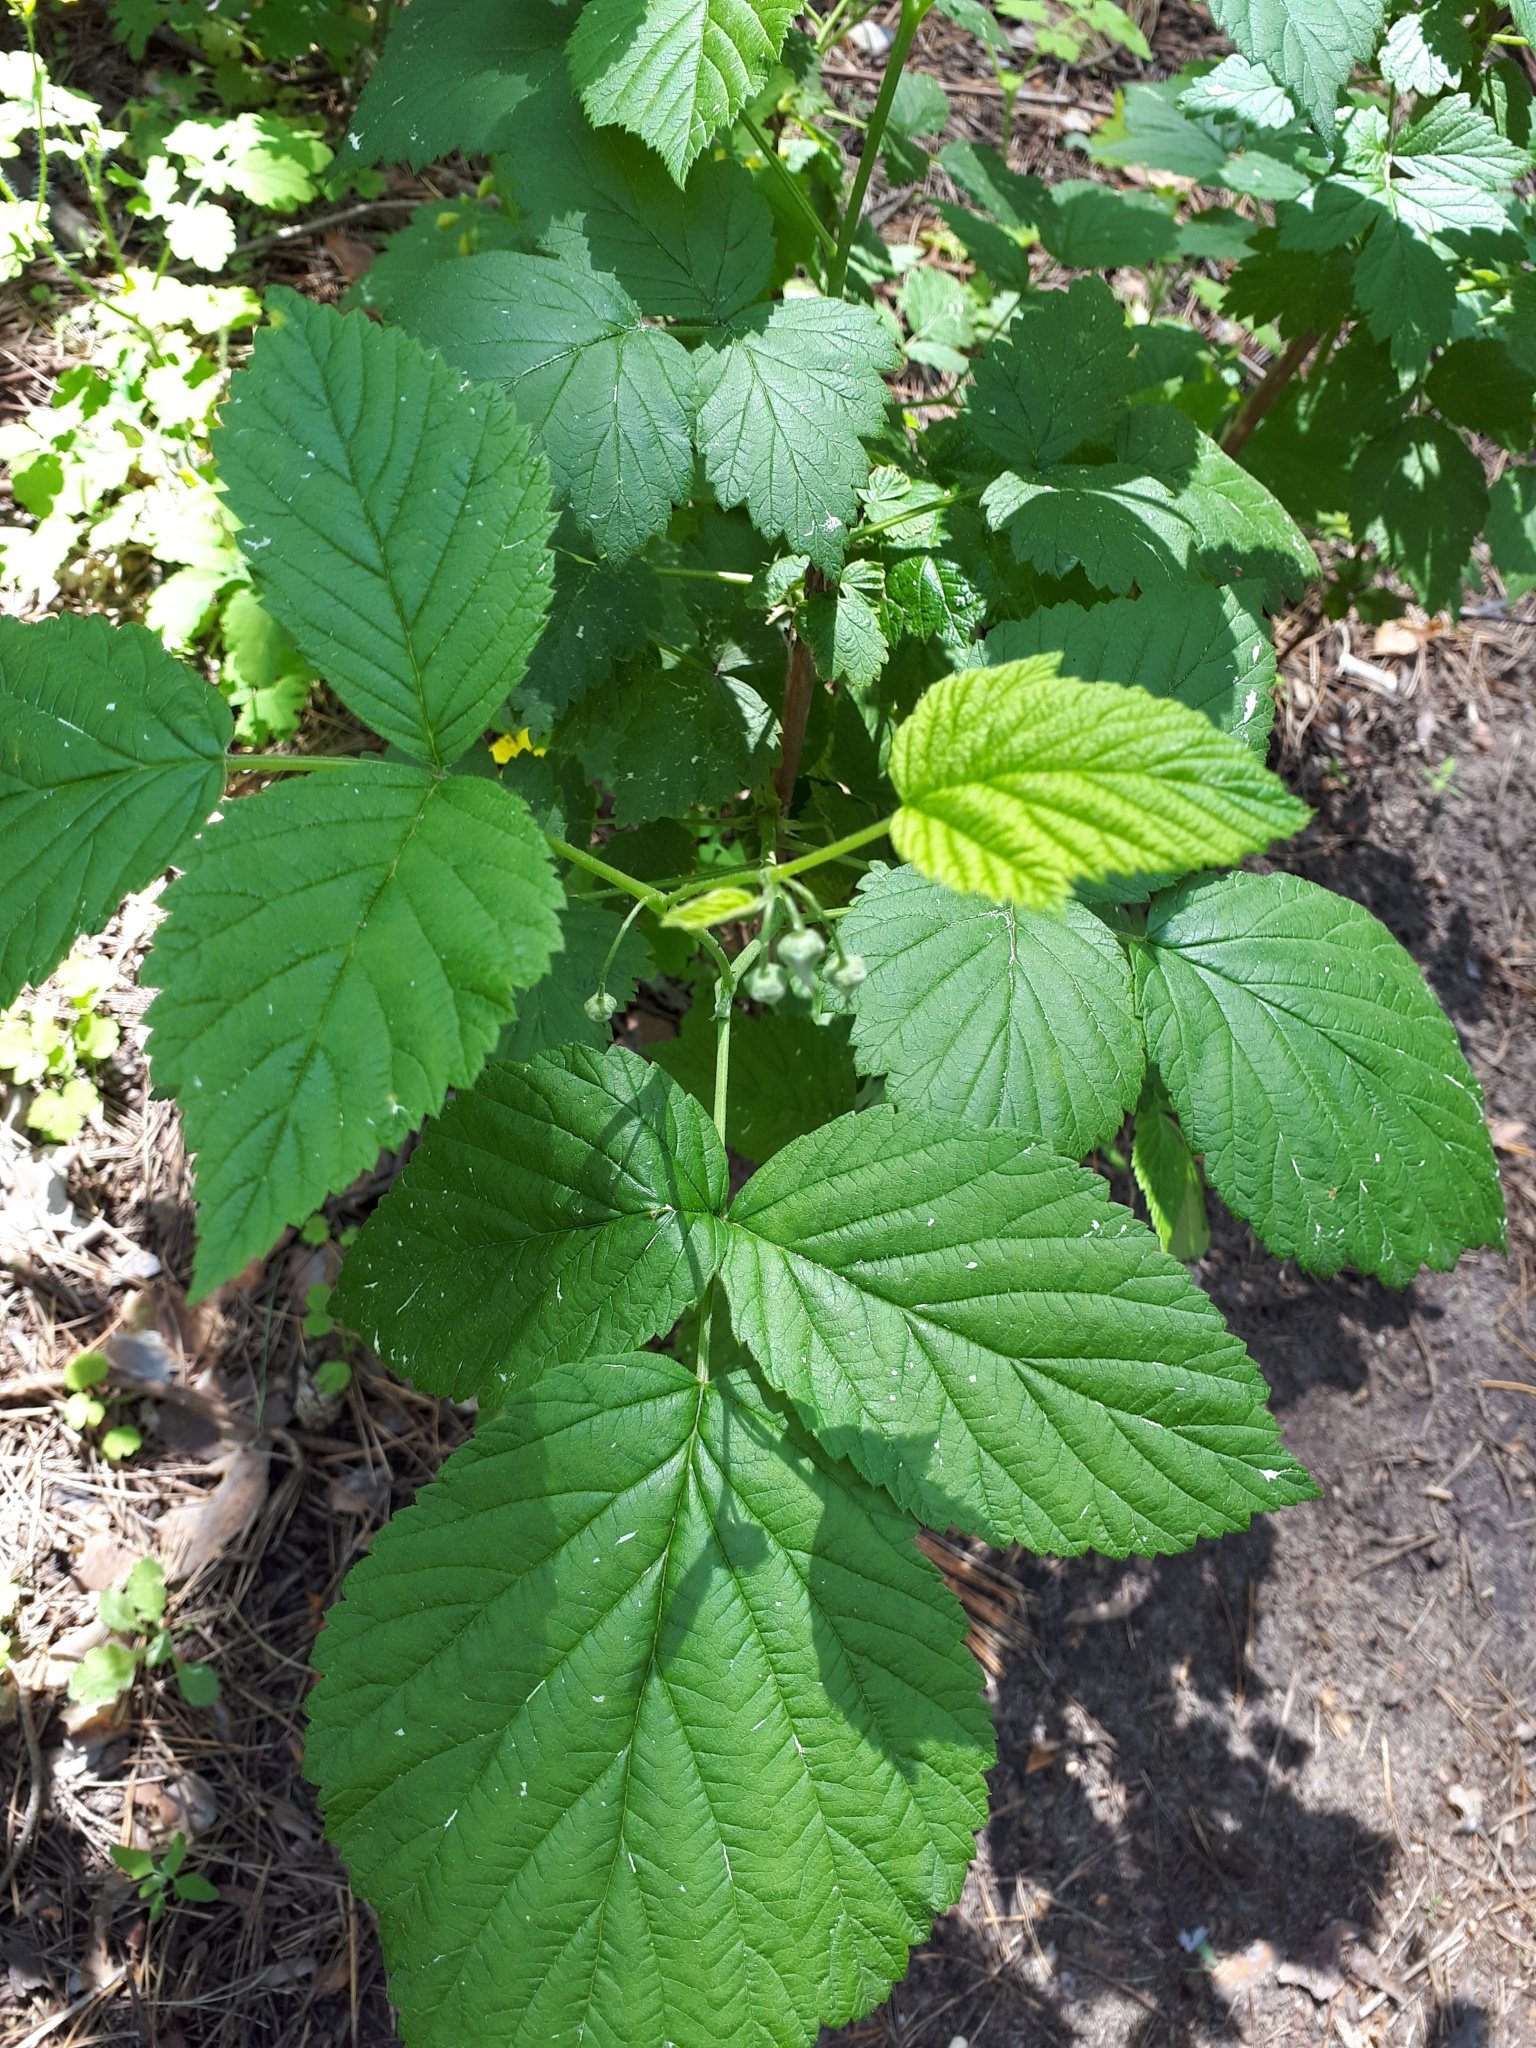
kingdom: Plantae
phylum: Tracheophyta
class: Magnoliopsida
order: Rosales
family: Rosaceae
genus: Rubus
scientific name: Rubus idaeus
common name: Raspberry
